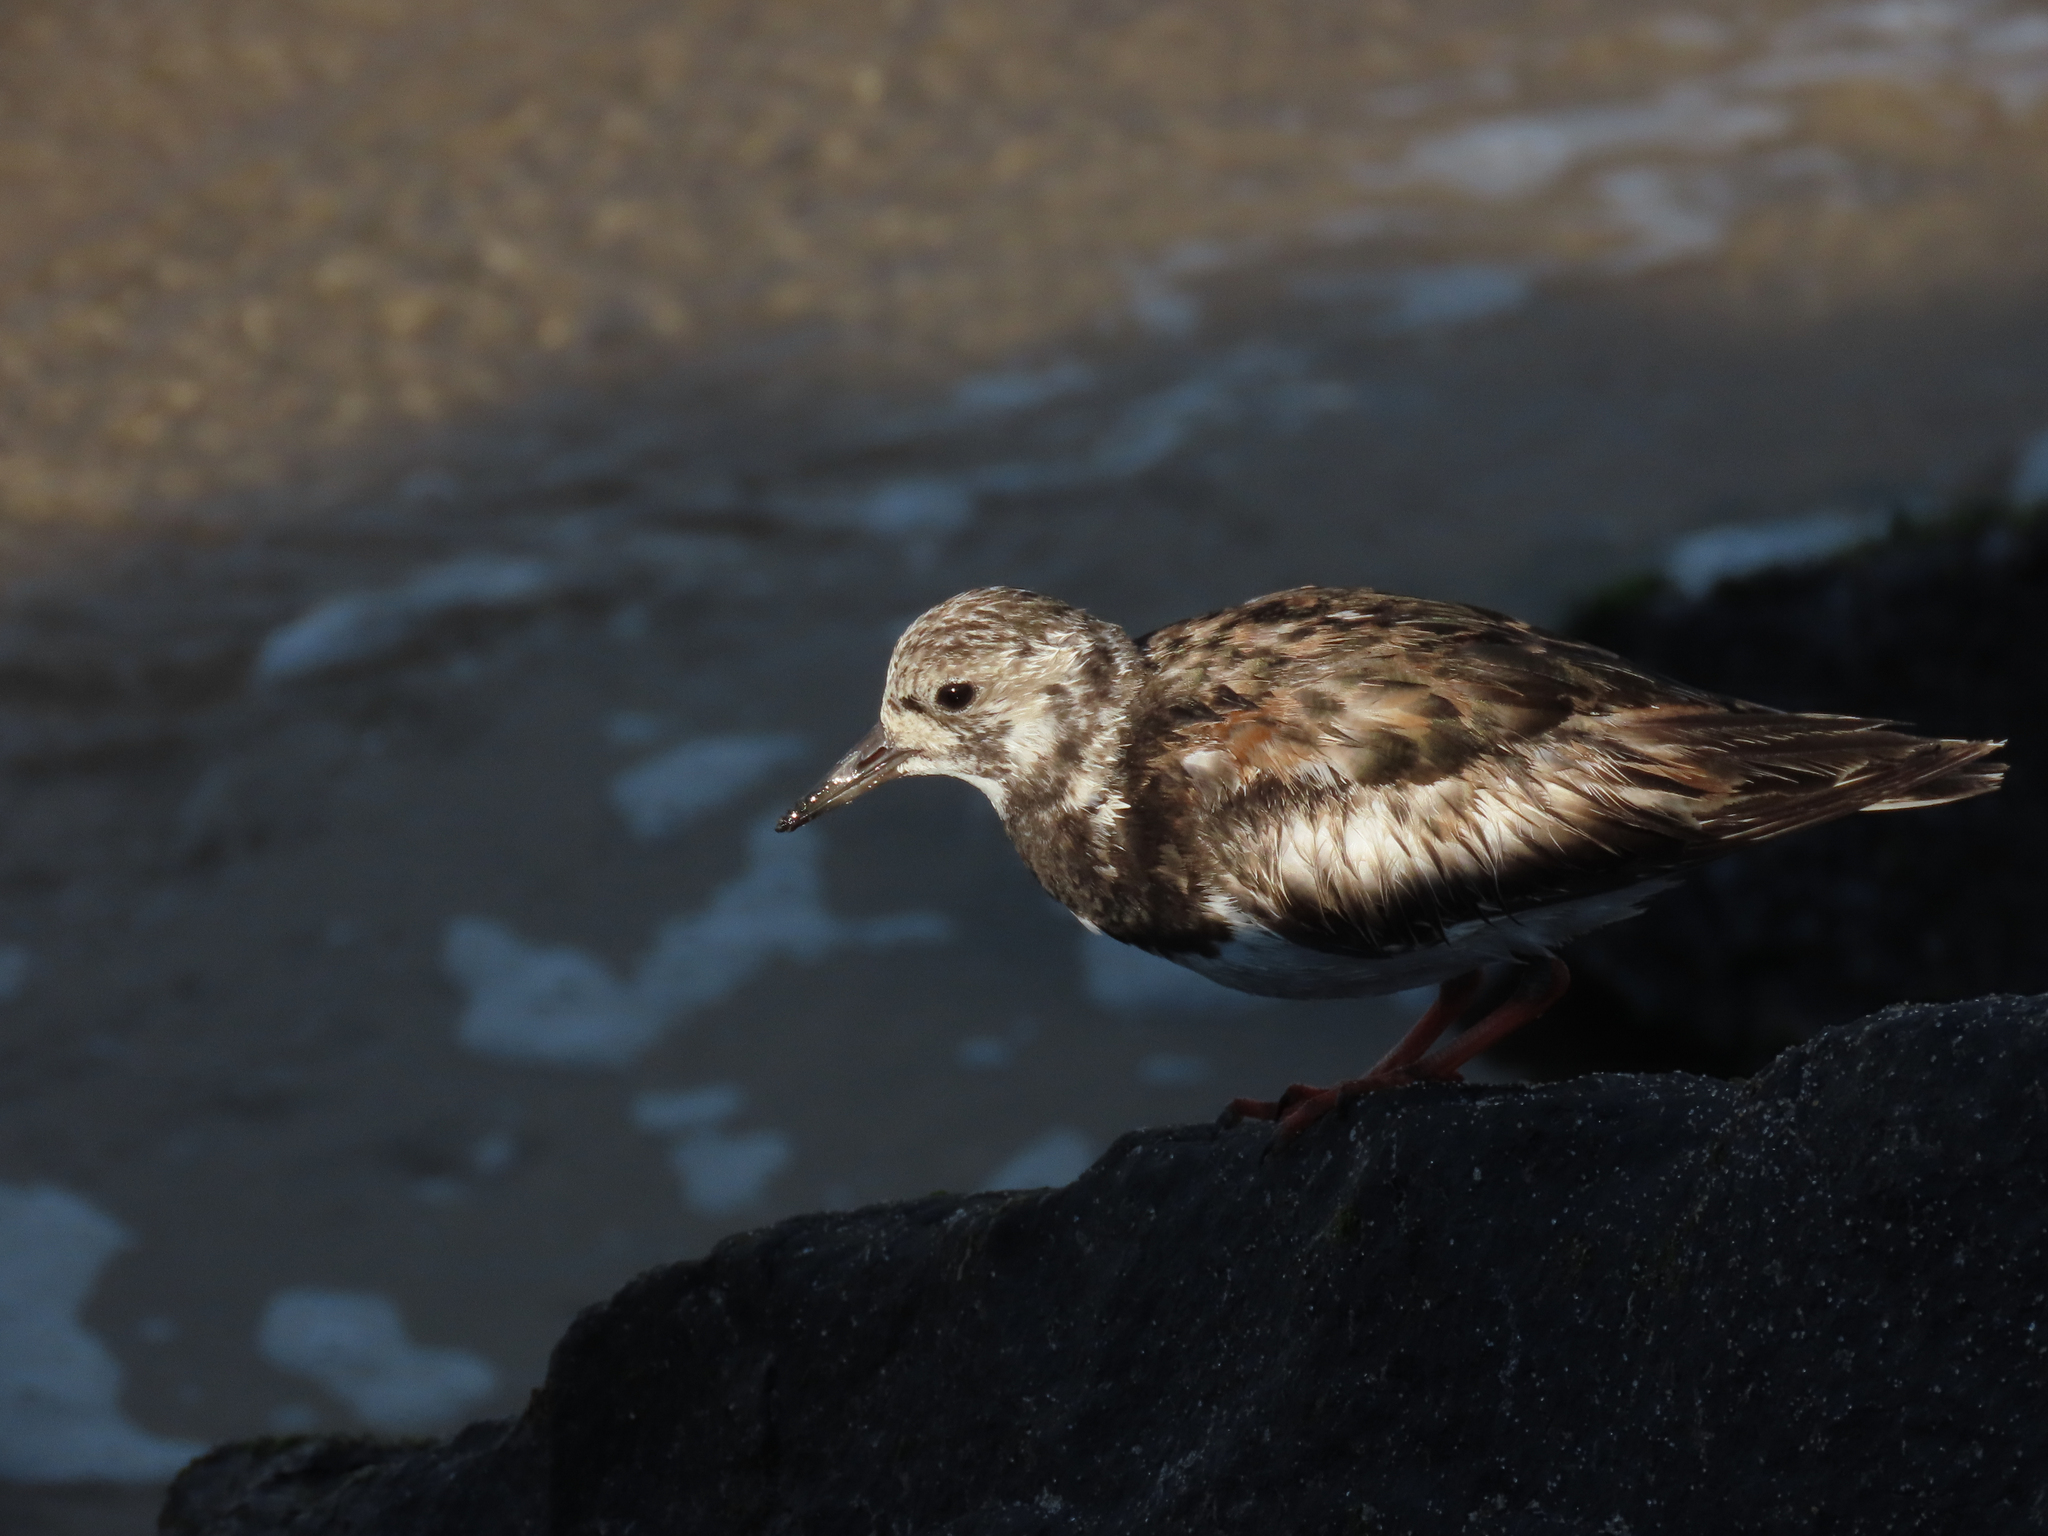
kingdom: Animalia
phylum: Chordata
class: Aves
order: Charadriiformes
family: Scolopacidae
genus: Arenaria
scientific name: Arenaria interpres
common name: Ruddy turnstone
